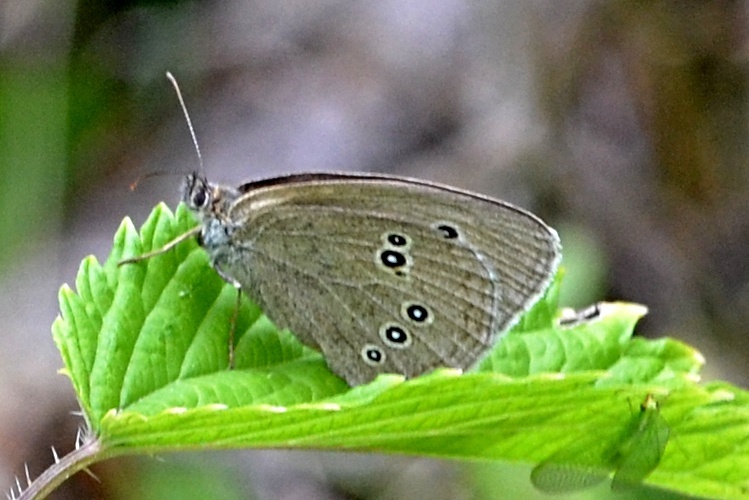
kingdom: Animalia
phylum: Arthropoda
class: Insecta
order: Lepidoptera
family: Nymphalidae
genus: Aphantopus
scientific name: Aphantopus hyperantus
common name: Ringlet
